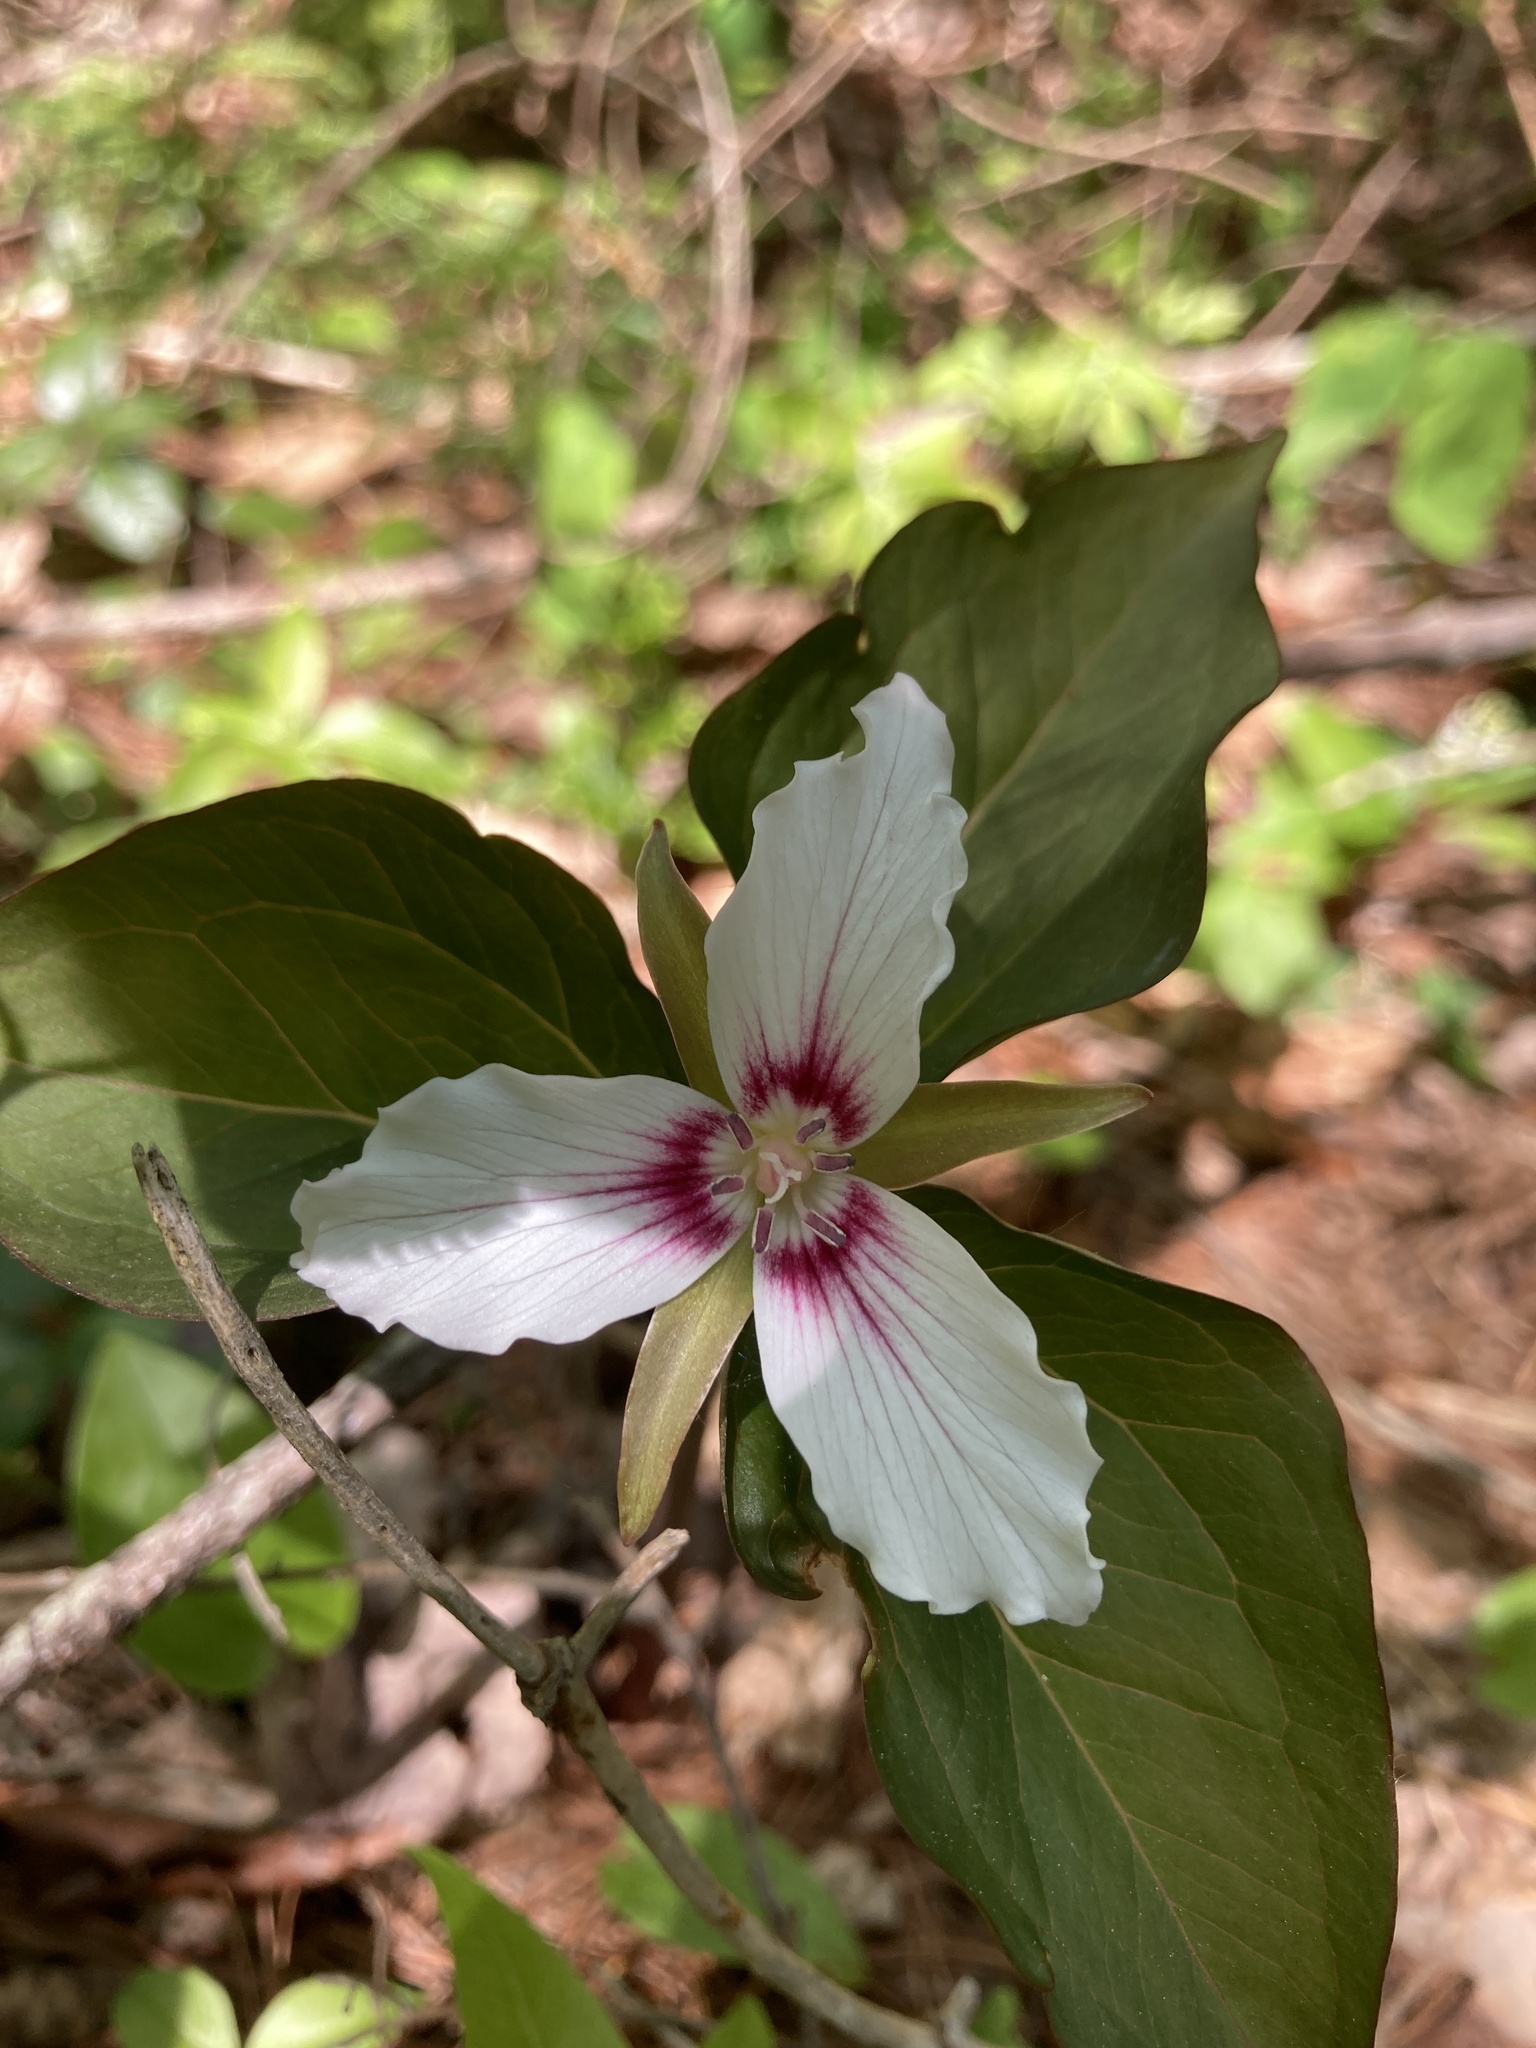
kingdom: Plantae
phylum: Tracheophyta
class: Liliopsida
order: Liliales
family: Melanthiaceae
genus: Trillium
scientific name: Trillium undulatum
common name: Paint trillium
